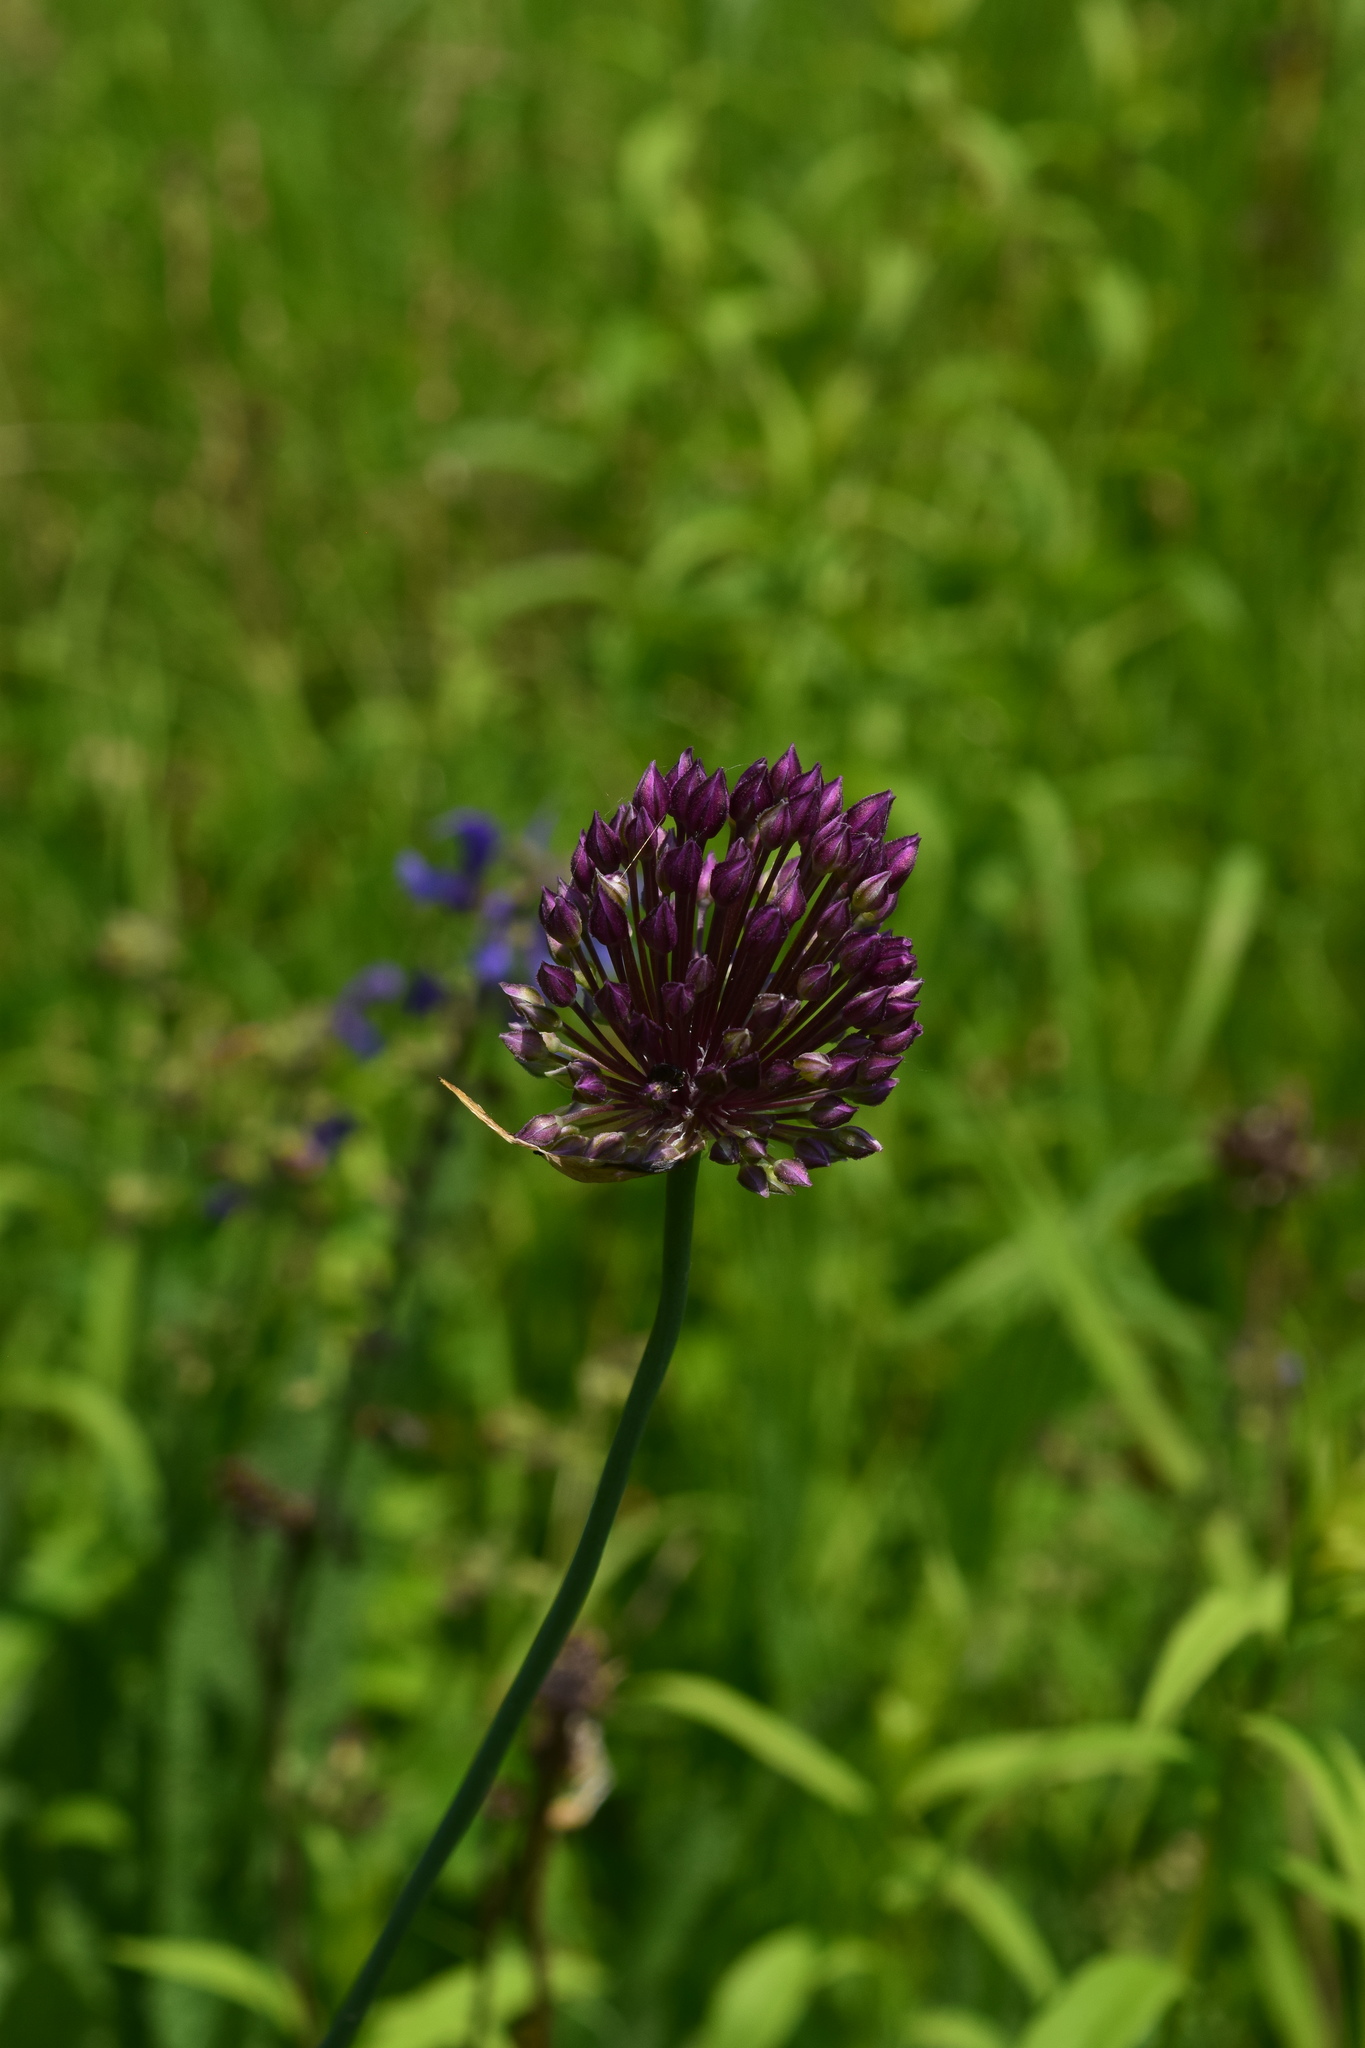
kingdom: Plantae
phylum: Tracheophyta
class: Liliopsida
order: Asparagales
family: Amaryllidaceae
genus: Allium
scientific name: Allium rotundum
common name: Sand leek
